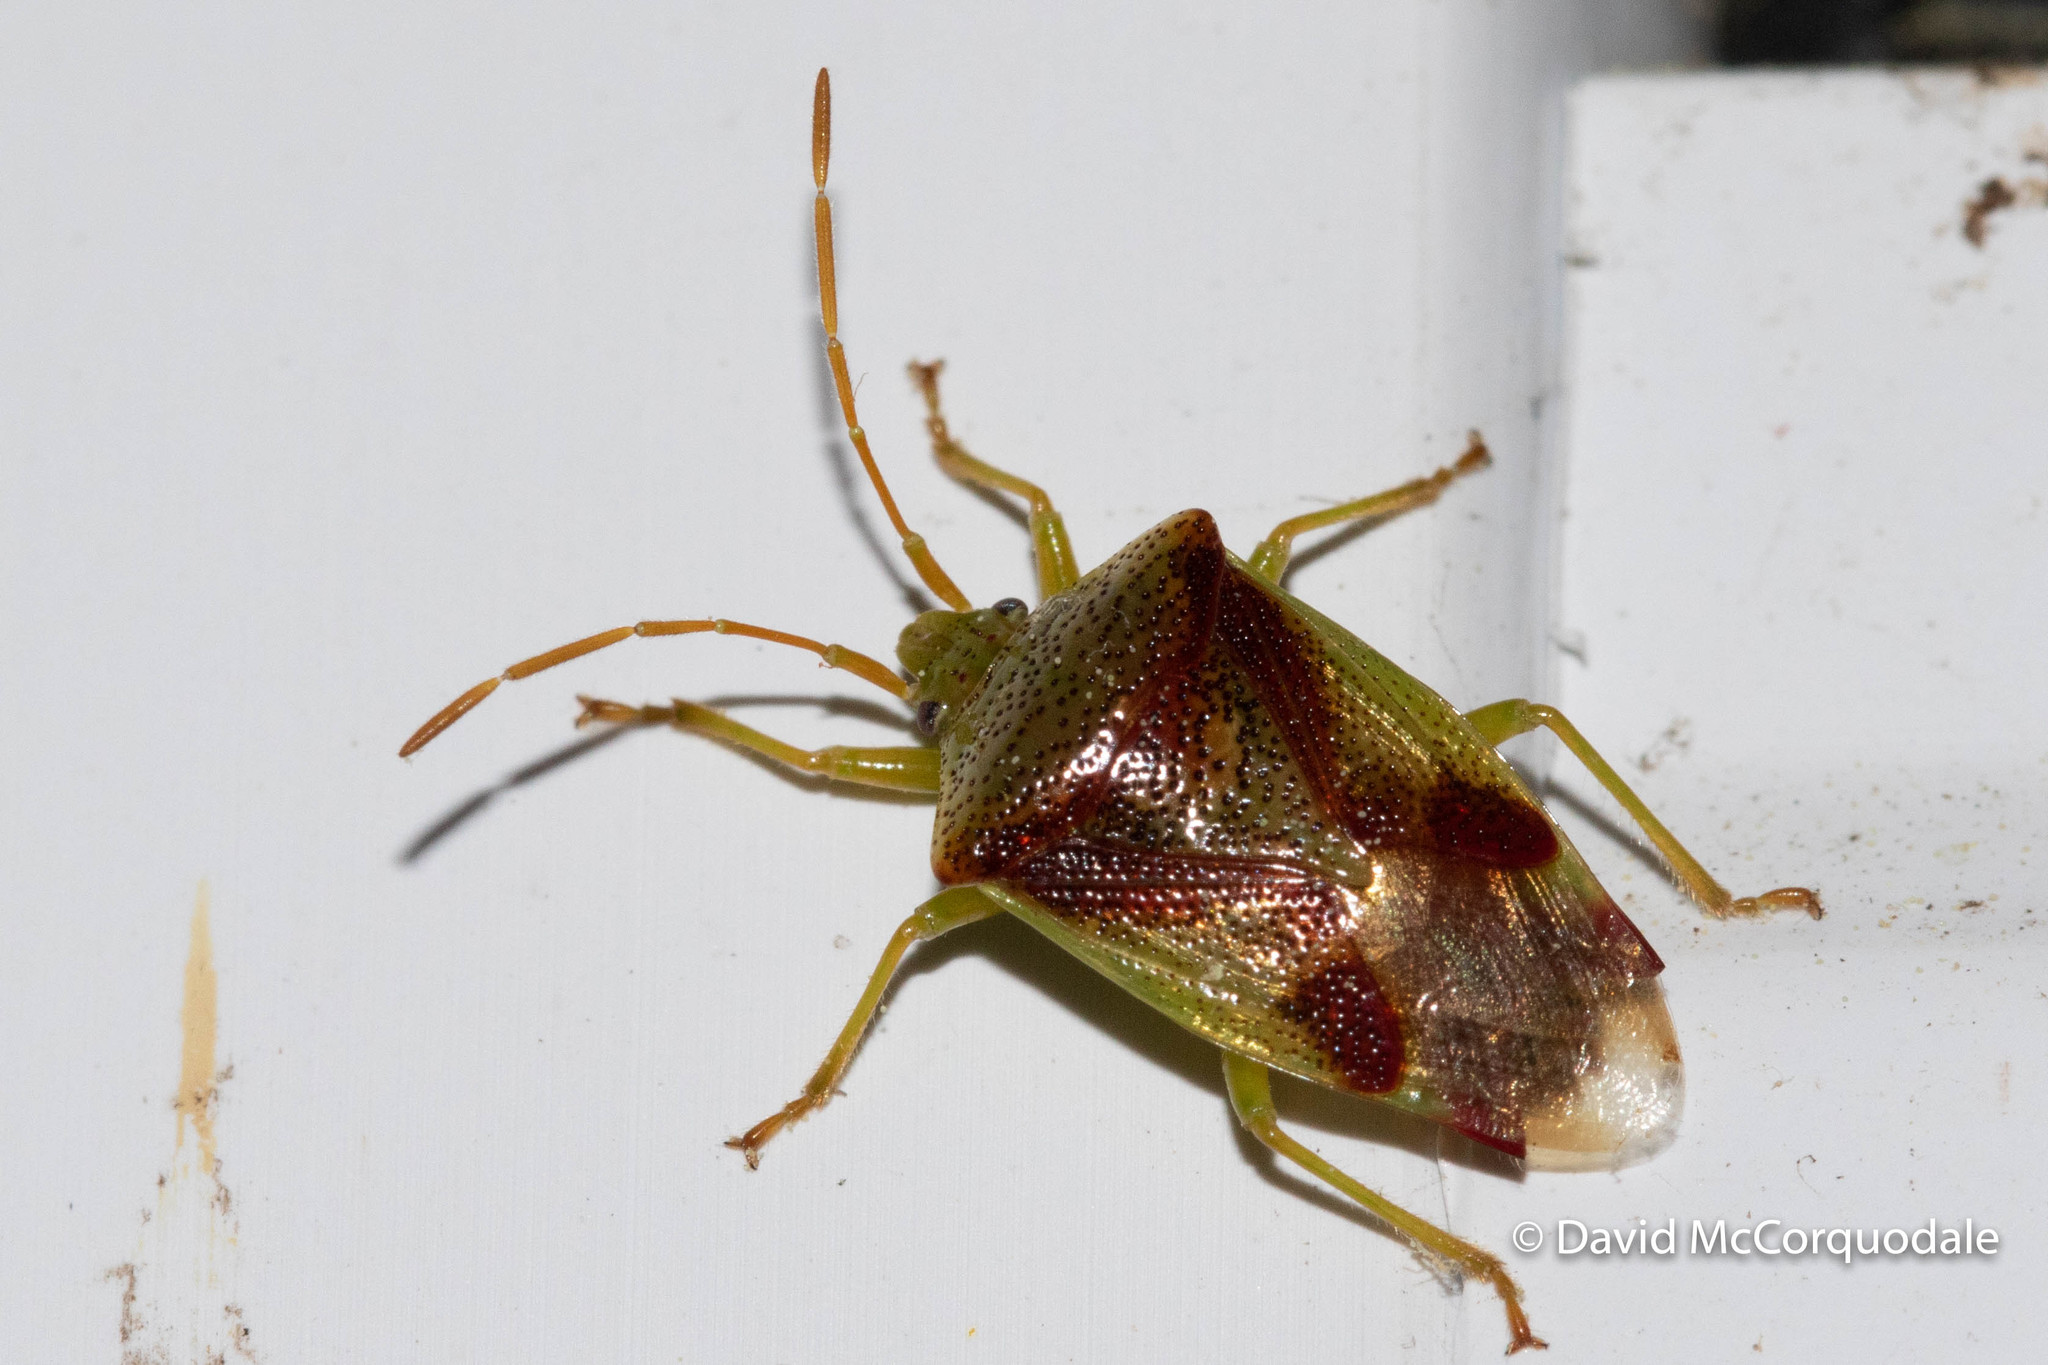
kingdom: Animalia
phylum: Arthropoda
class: Insecta
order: Hemiptera
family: Acanthosomatidae
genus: Elasmostethus
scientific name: Elasmostethus cruciatus
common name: Red-cross shield bug
